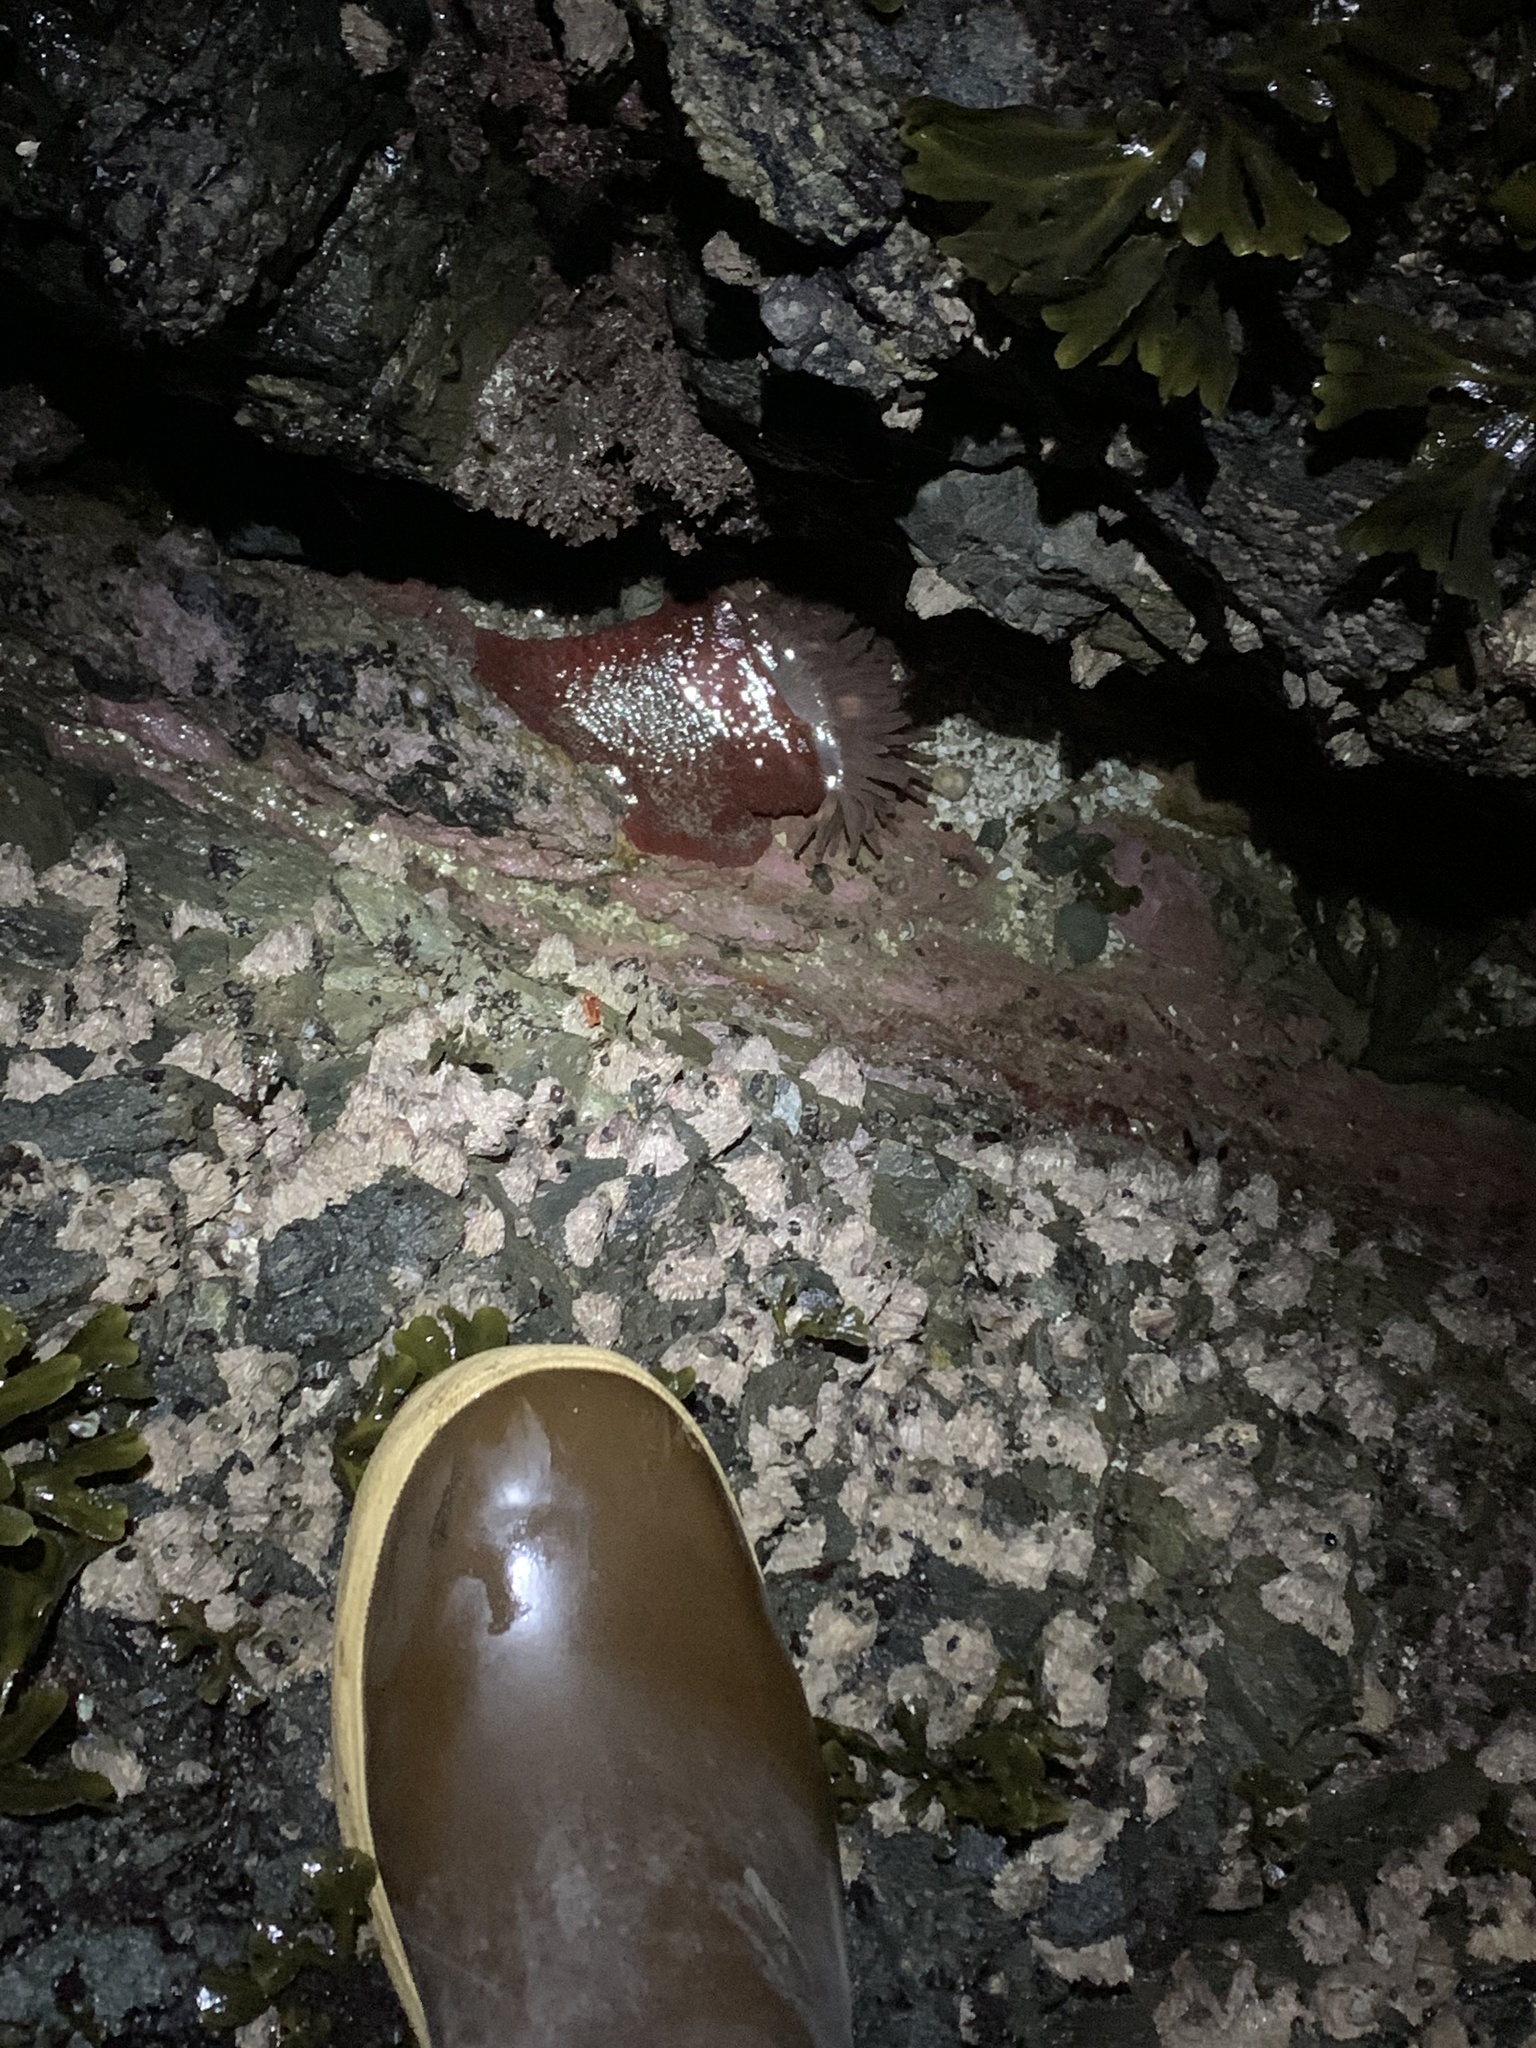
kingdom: Animalia
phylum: Cnidaria
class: Anthozoa
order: Actiniaria
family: Actiniidae
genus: Urticina
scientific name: Urticina grebelnyi
